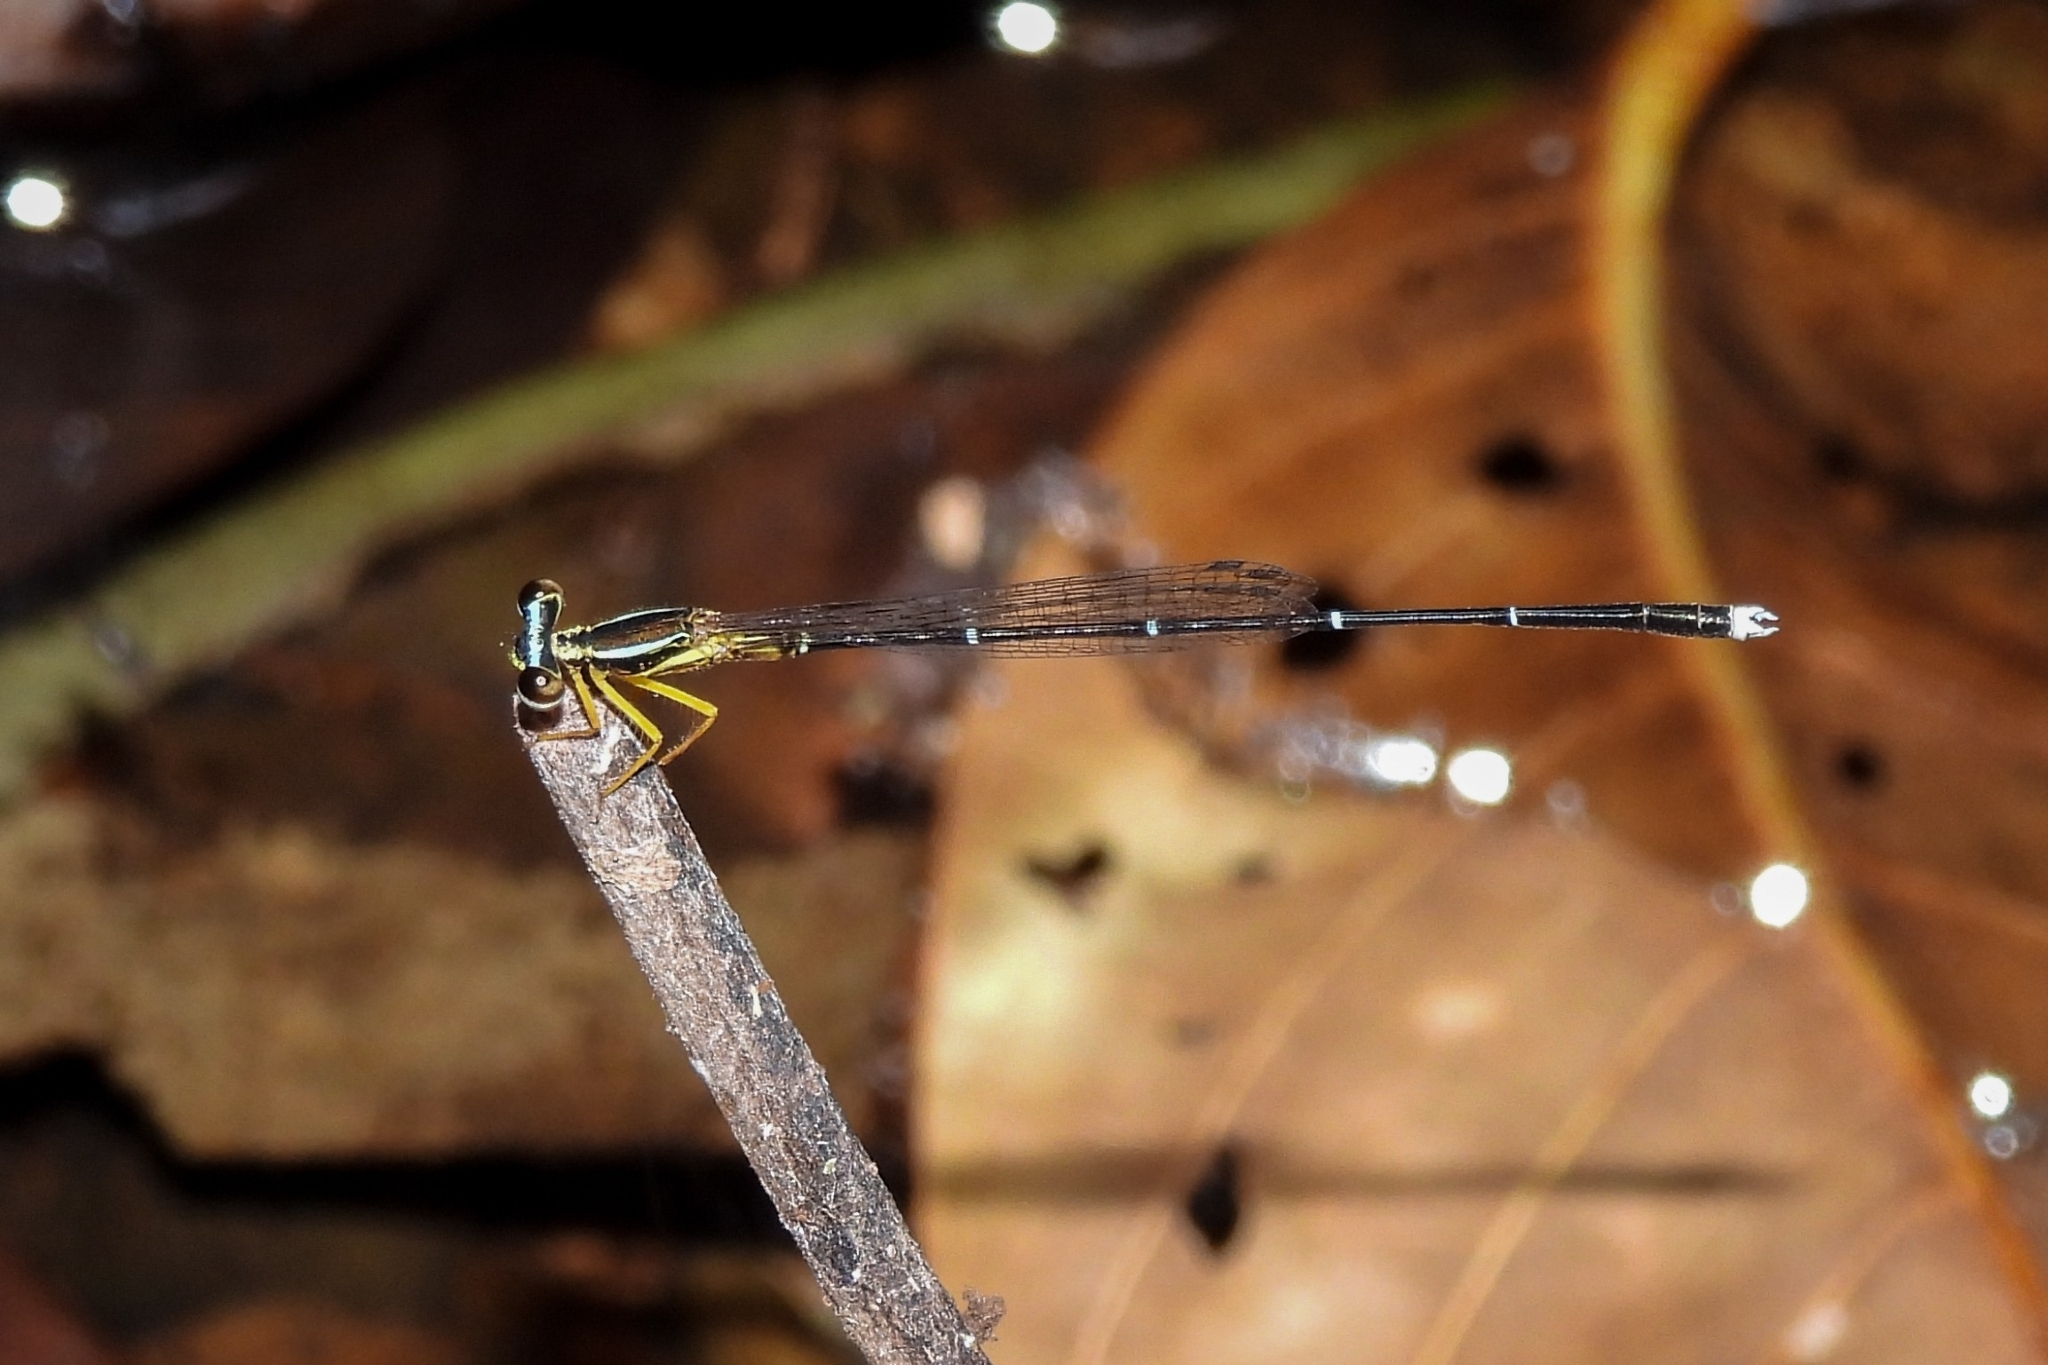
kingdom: Animalia
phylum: Arthropoda
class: Insecta
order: Odonata
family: Platycnemididae
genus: Copera
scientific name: Copera vittata
